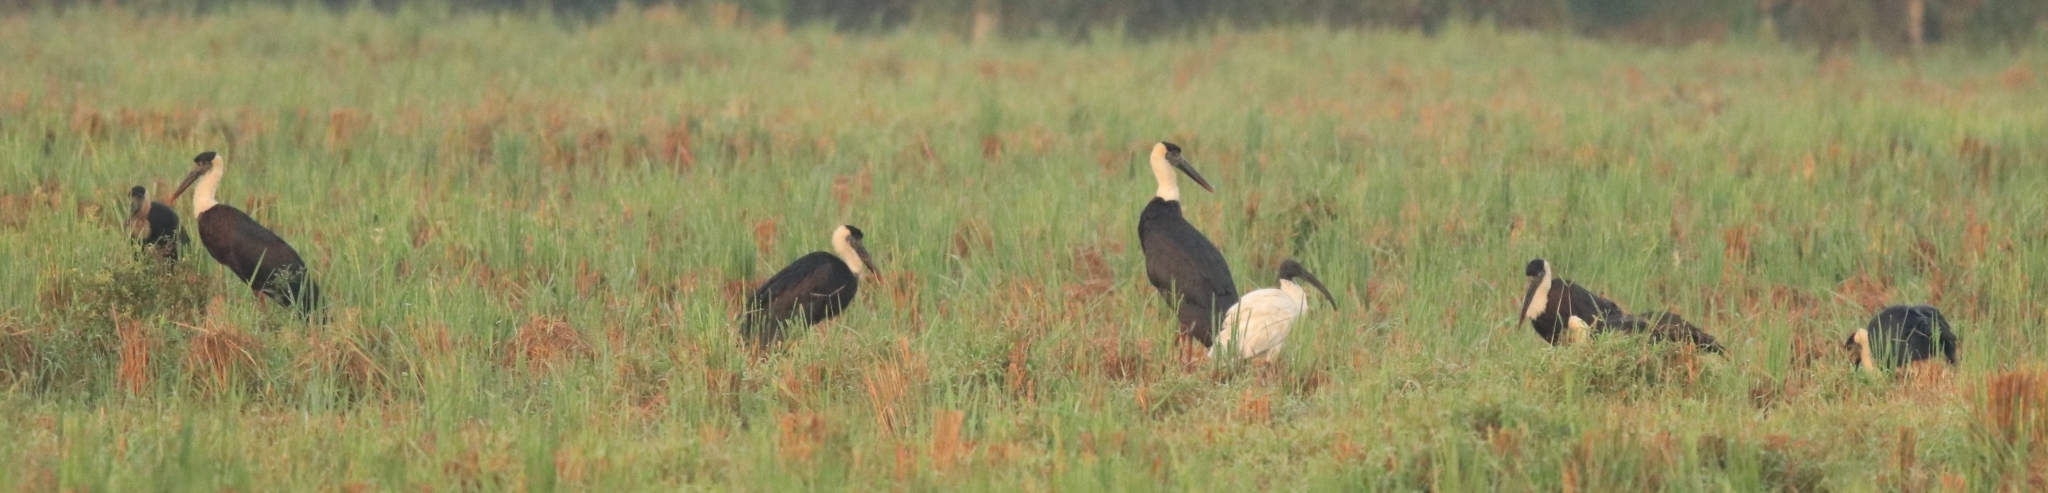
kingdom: Animalia
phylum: Chordata
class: Aves
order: Pelecaniformes
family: Threskiornithidae
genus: Threskiornis
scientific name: Threskiornis melanocephalus
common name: Black-headed ibis
